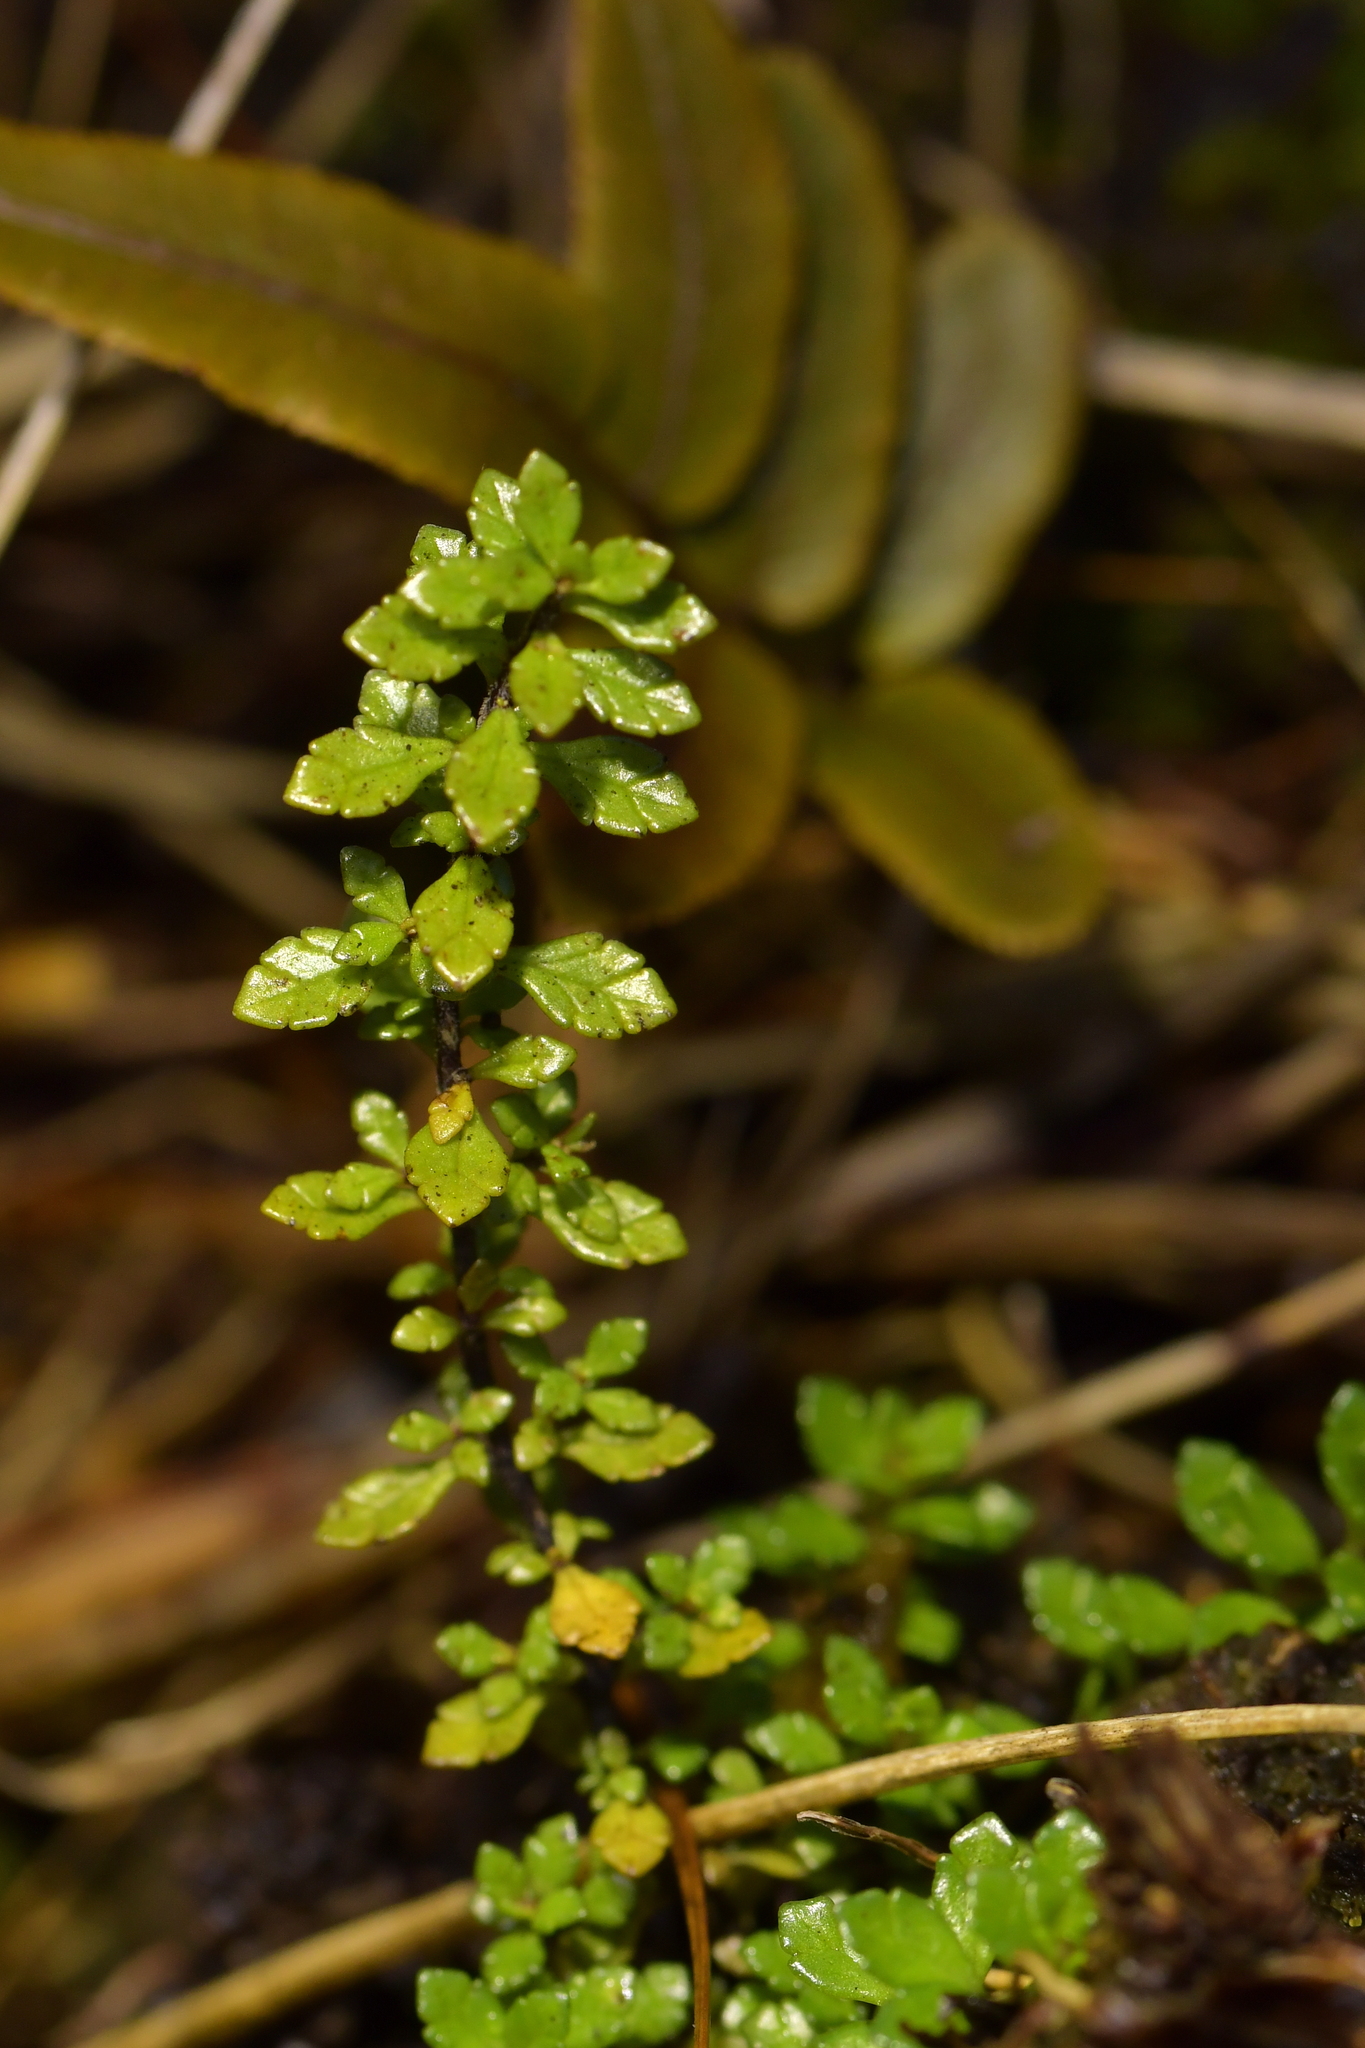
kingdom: Plantae
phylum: Tracheophyta
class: Magnoliopsida
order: Lamiales
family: Orobanchaceae
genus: Euphrasia
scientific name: Euphrasia cuneata
